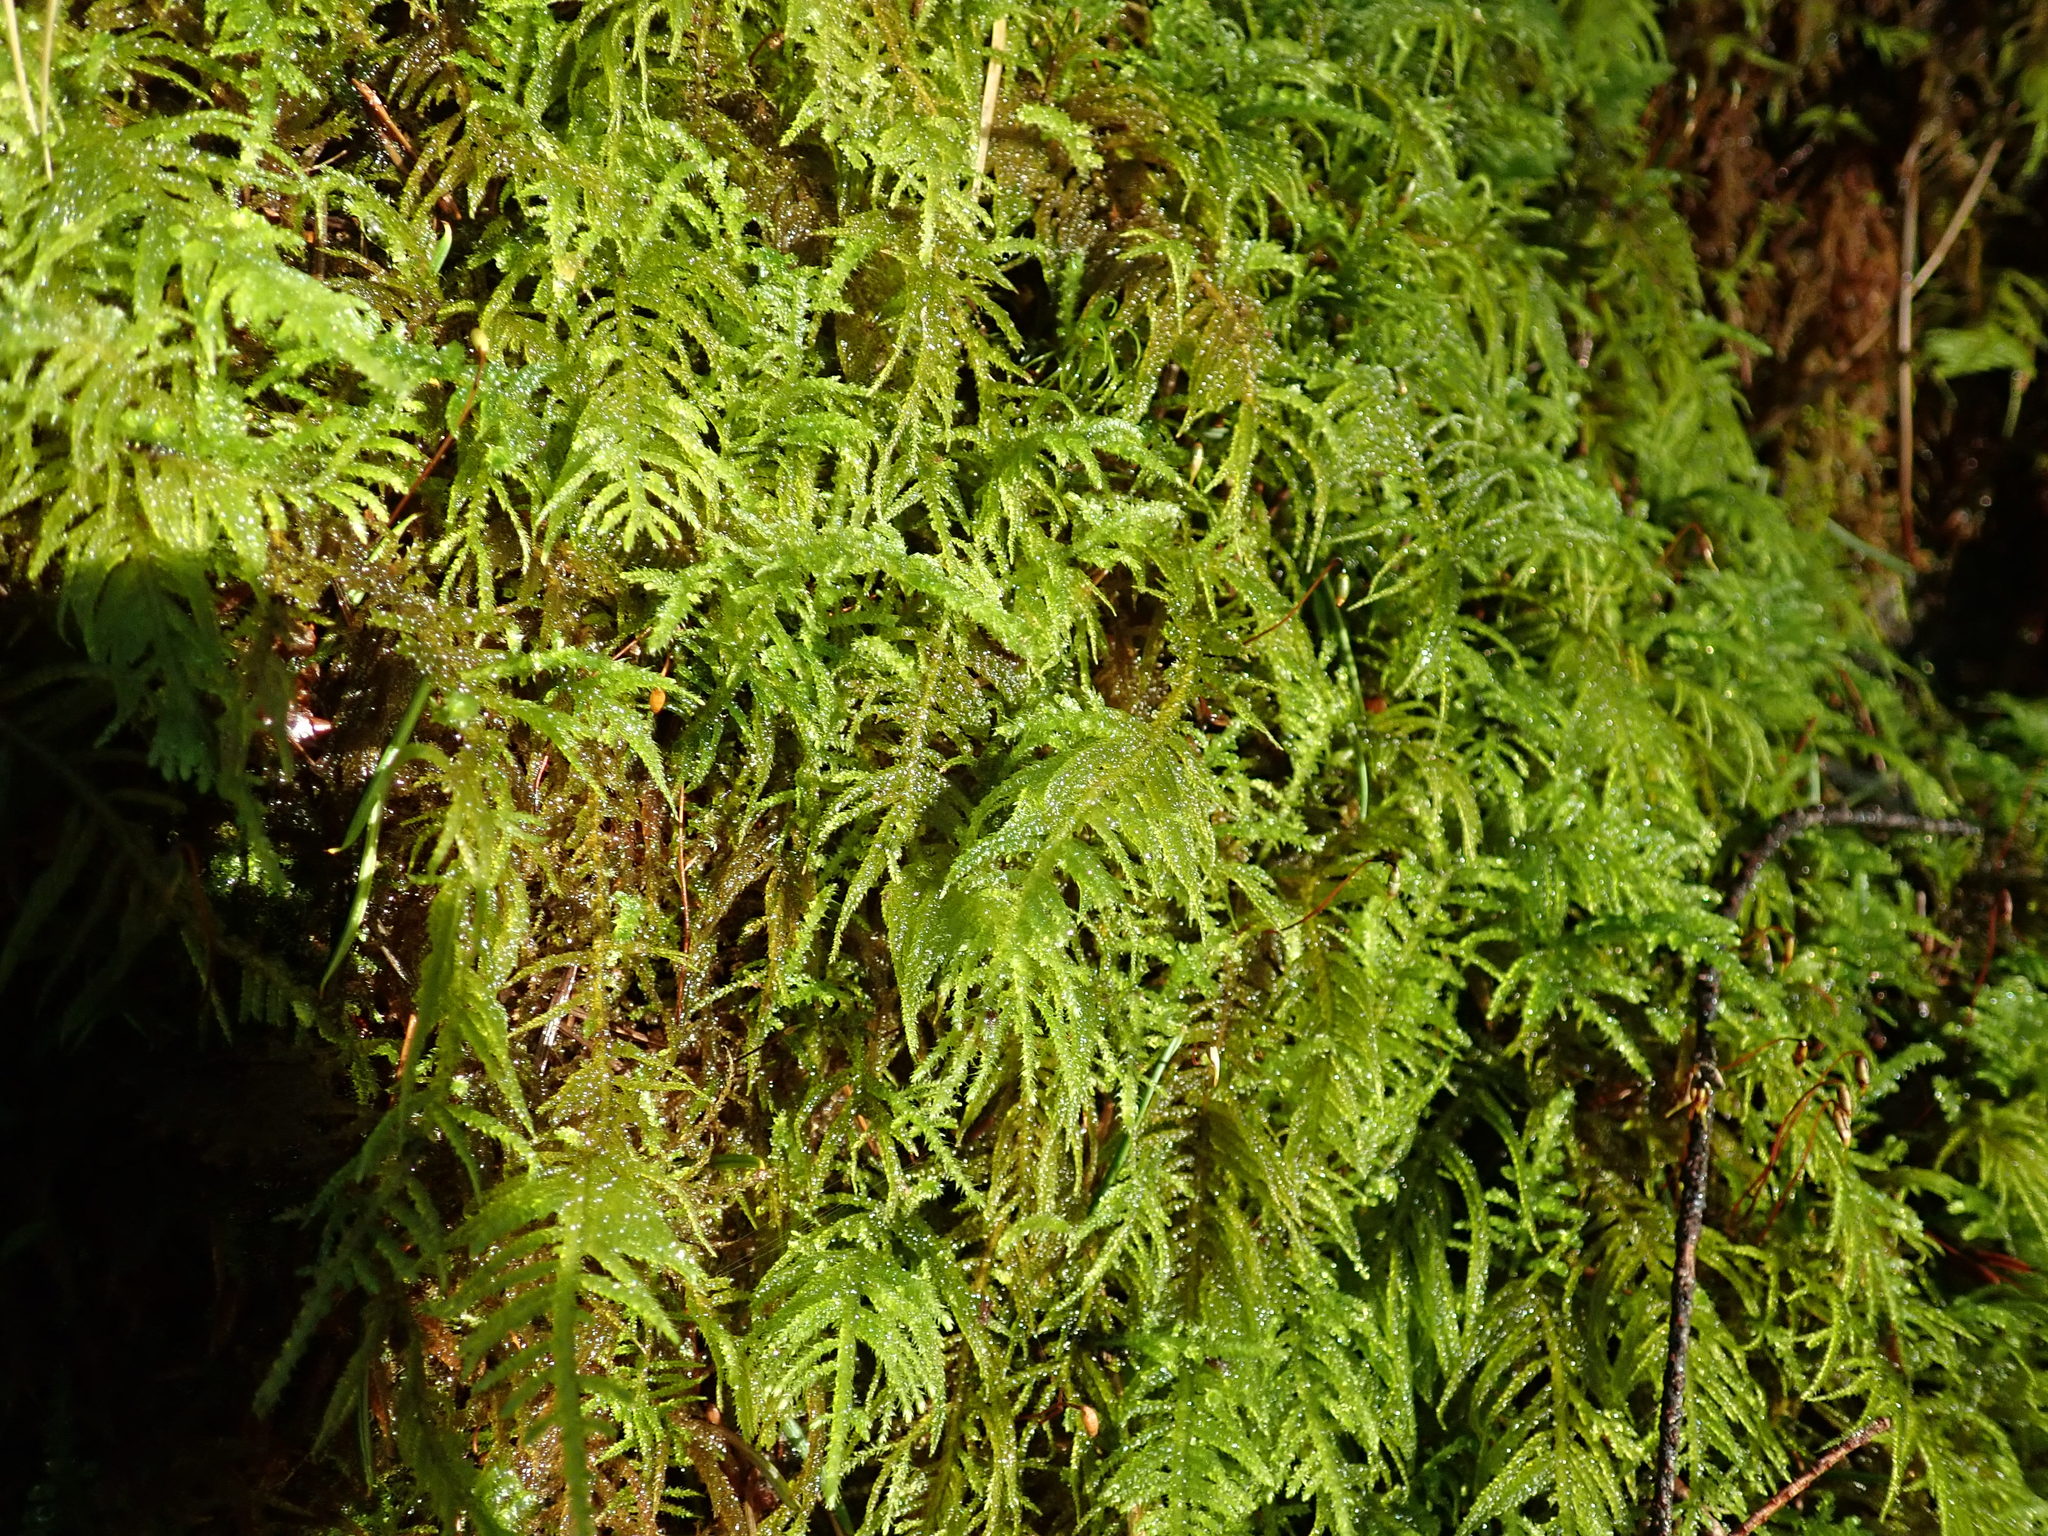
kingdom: Plantae
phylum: Bryophyta
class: Bryopsida
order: Hypnales
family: Brachytheciaceae
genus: Kindbergia
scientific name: Kindbergia oregana
